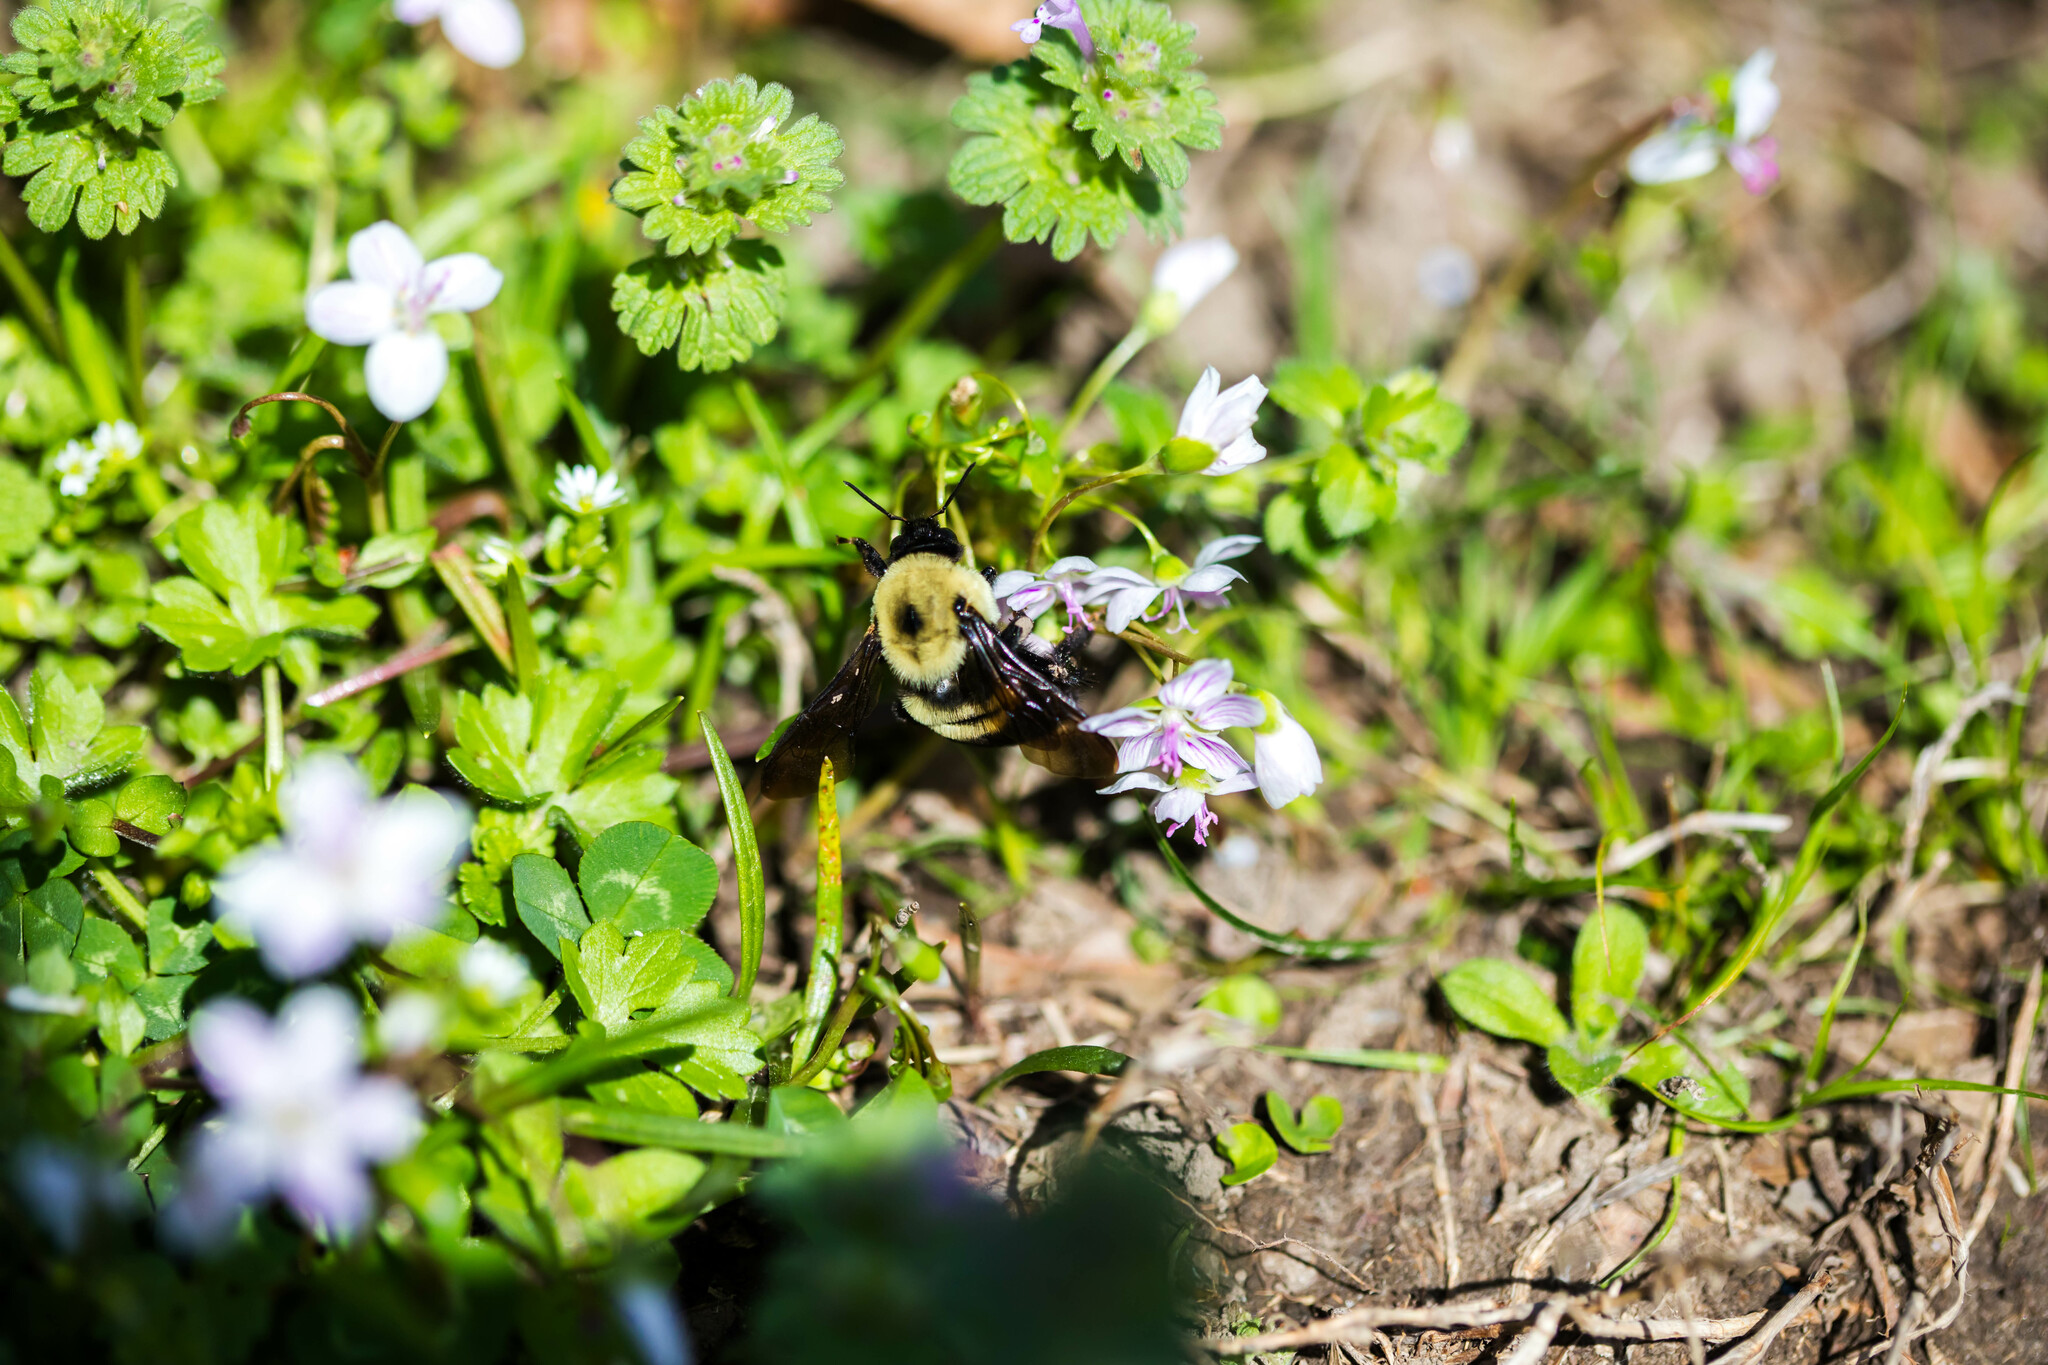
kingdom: Animalia
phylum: Arthropoda
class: Insecta
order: Hymenoptera
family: Apidae
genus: Bombus
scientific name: Bombus griseocollis
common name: Brown-belted bumble bee
